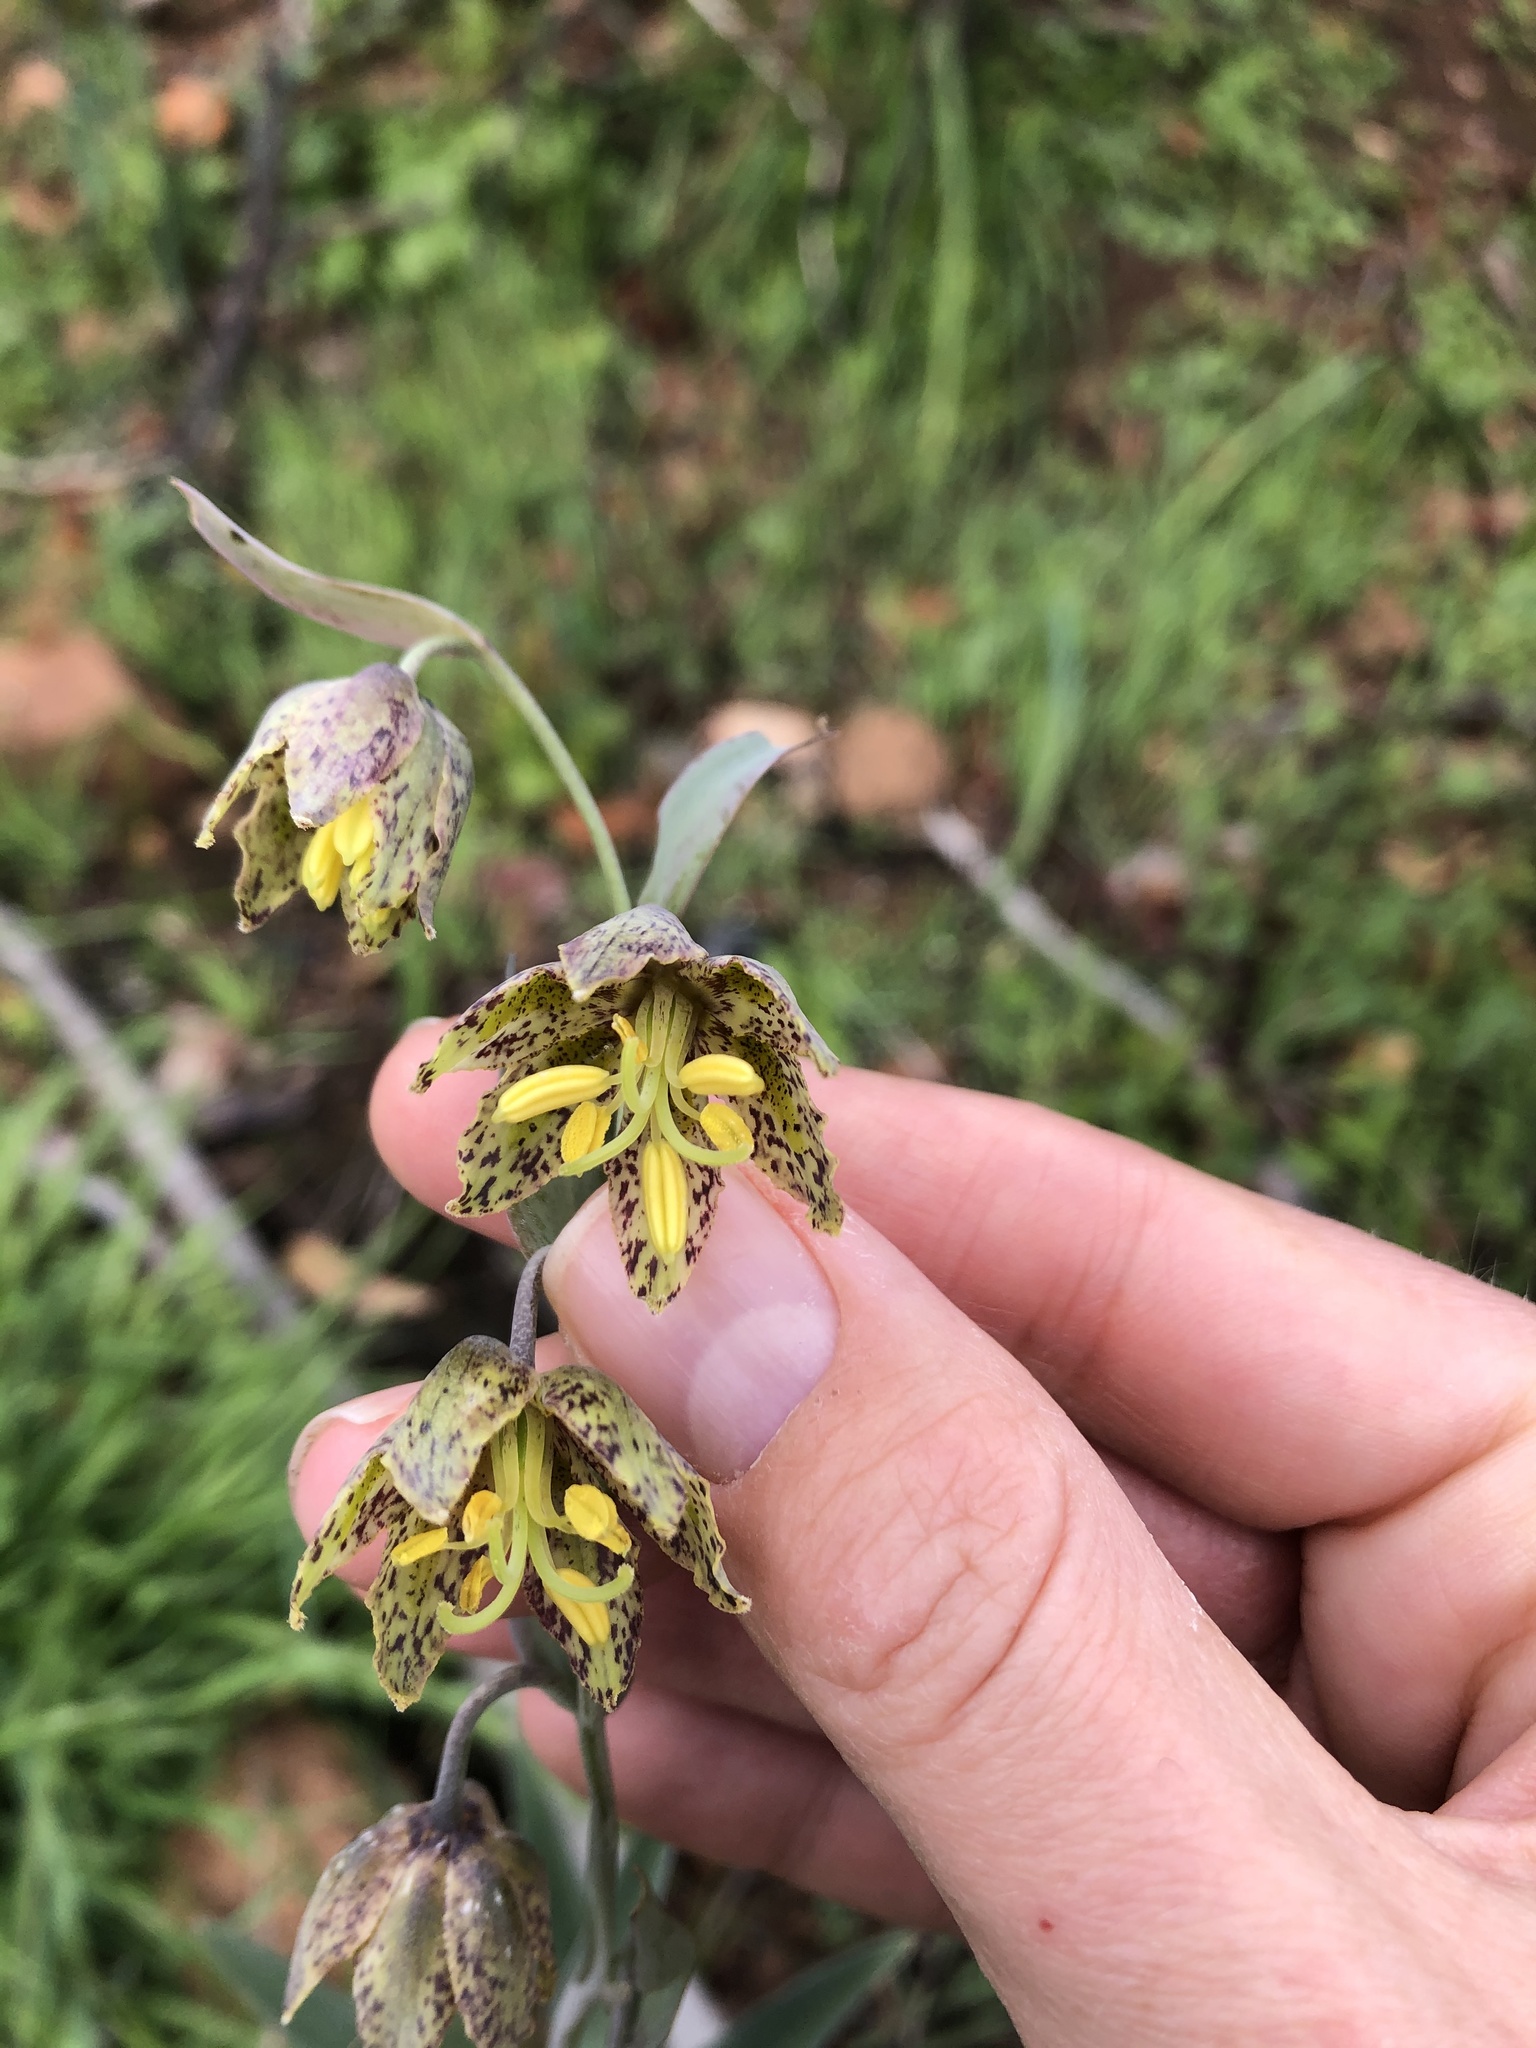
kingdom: Plantae
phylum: Tracheophyta
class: Liliopsida
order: Liliales
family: Liliaceae
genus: Fritillaria
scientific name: Fritillaria affinis
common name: Ojai fritillary
